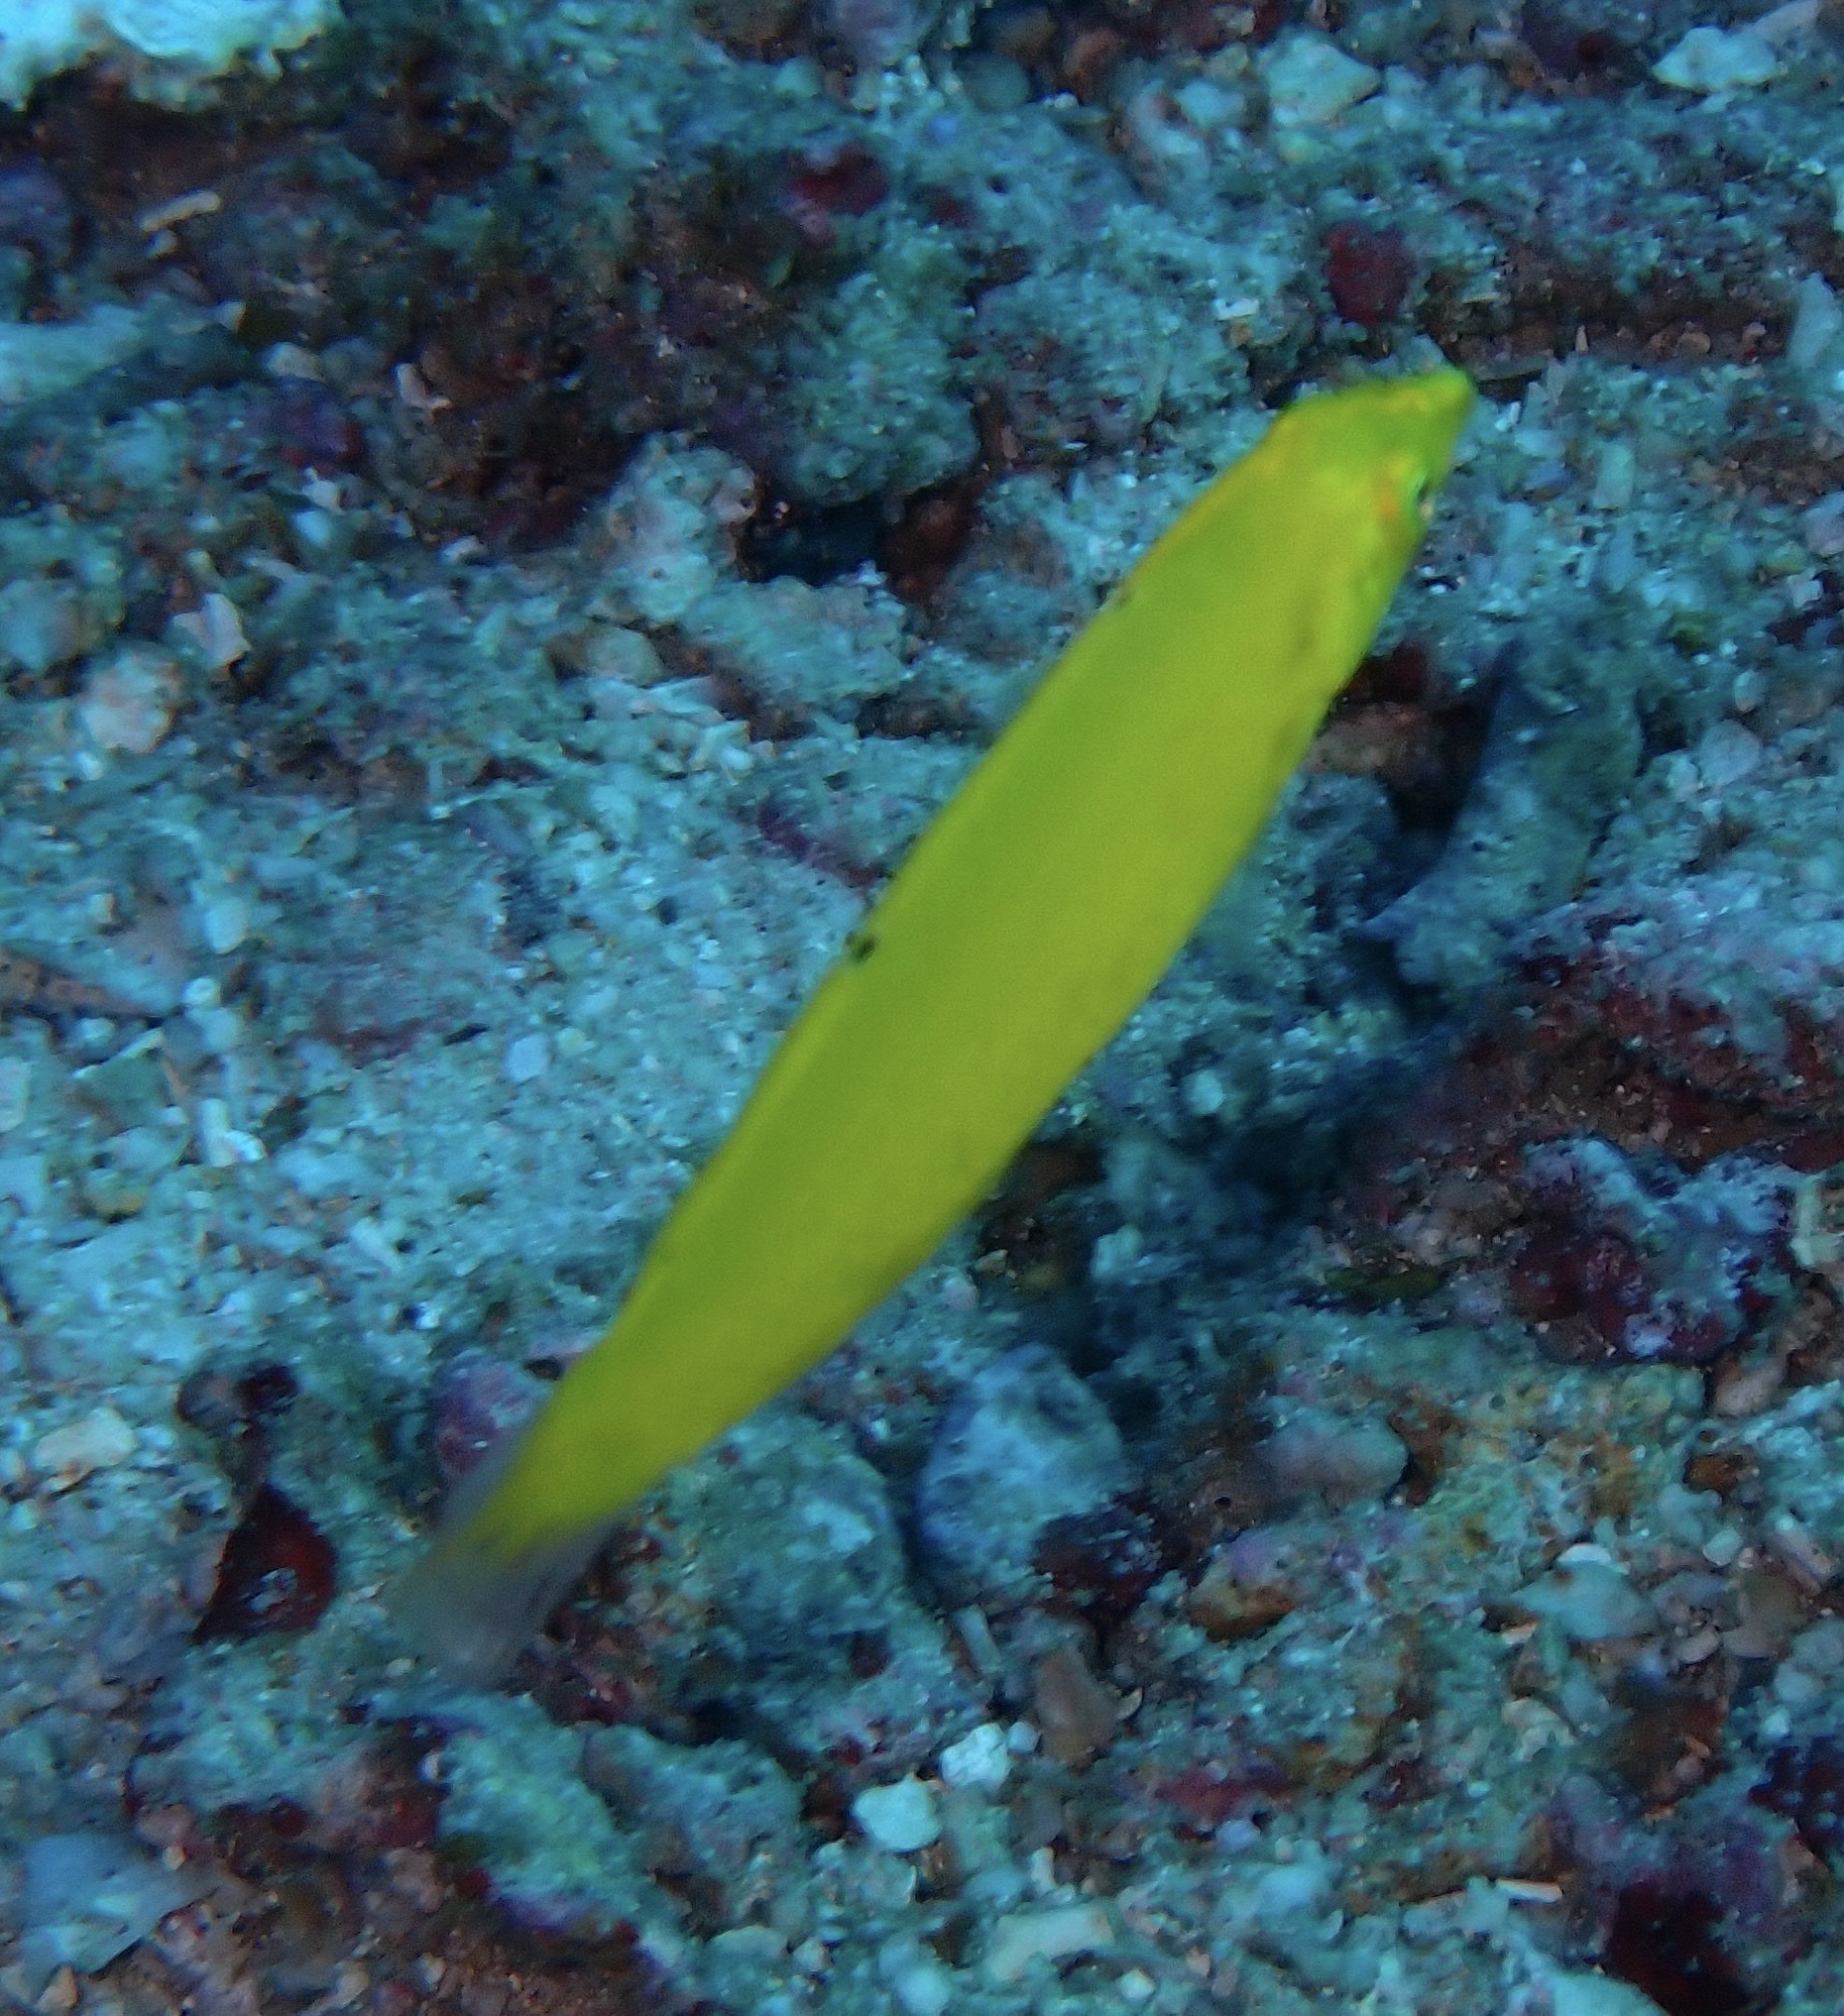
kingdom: Animalia
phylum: Chordata
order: Perciformes
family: Labridae
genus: Halichoeres
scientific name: Halichoeres chrysus
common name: Canary wrasse
